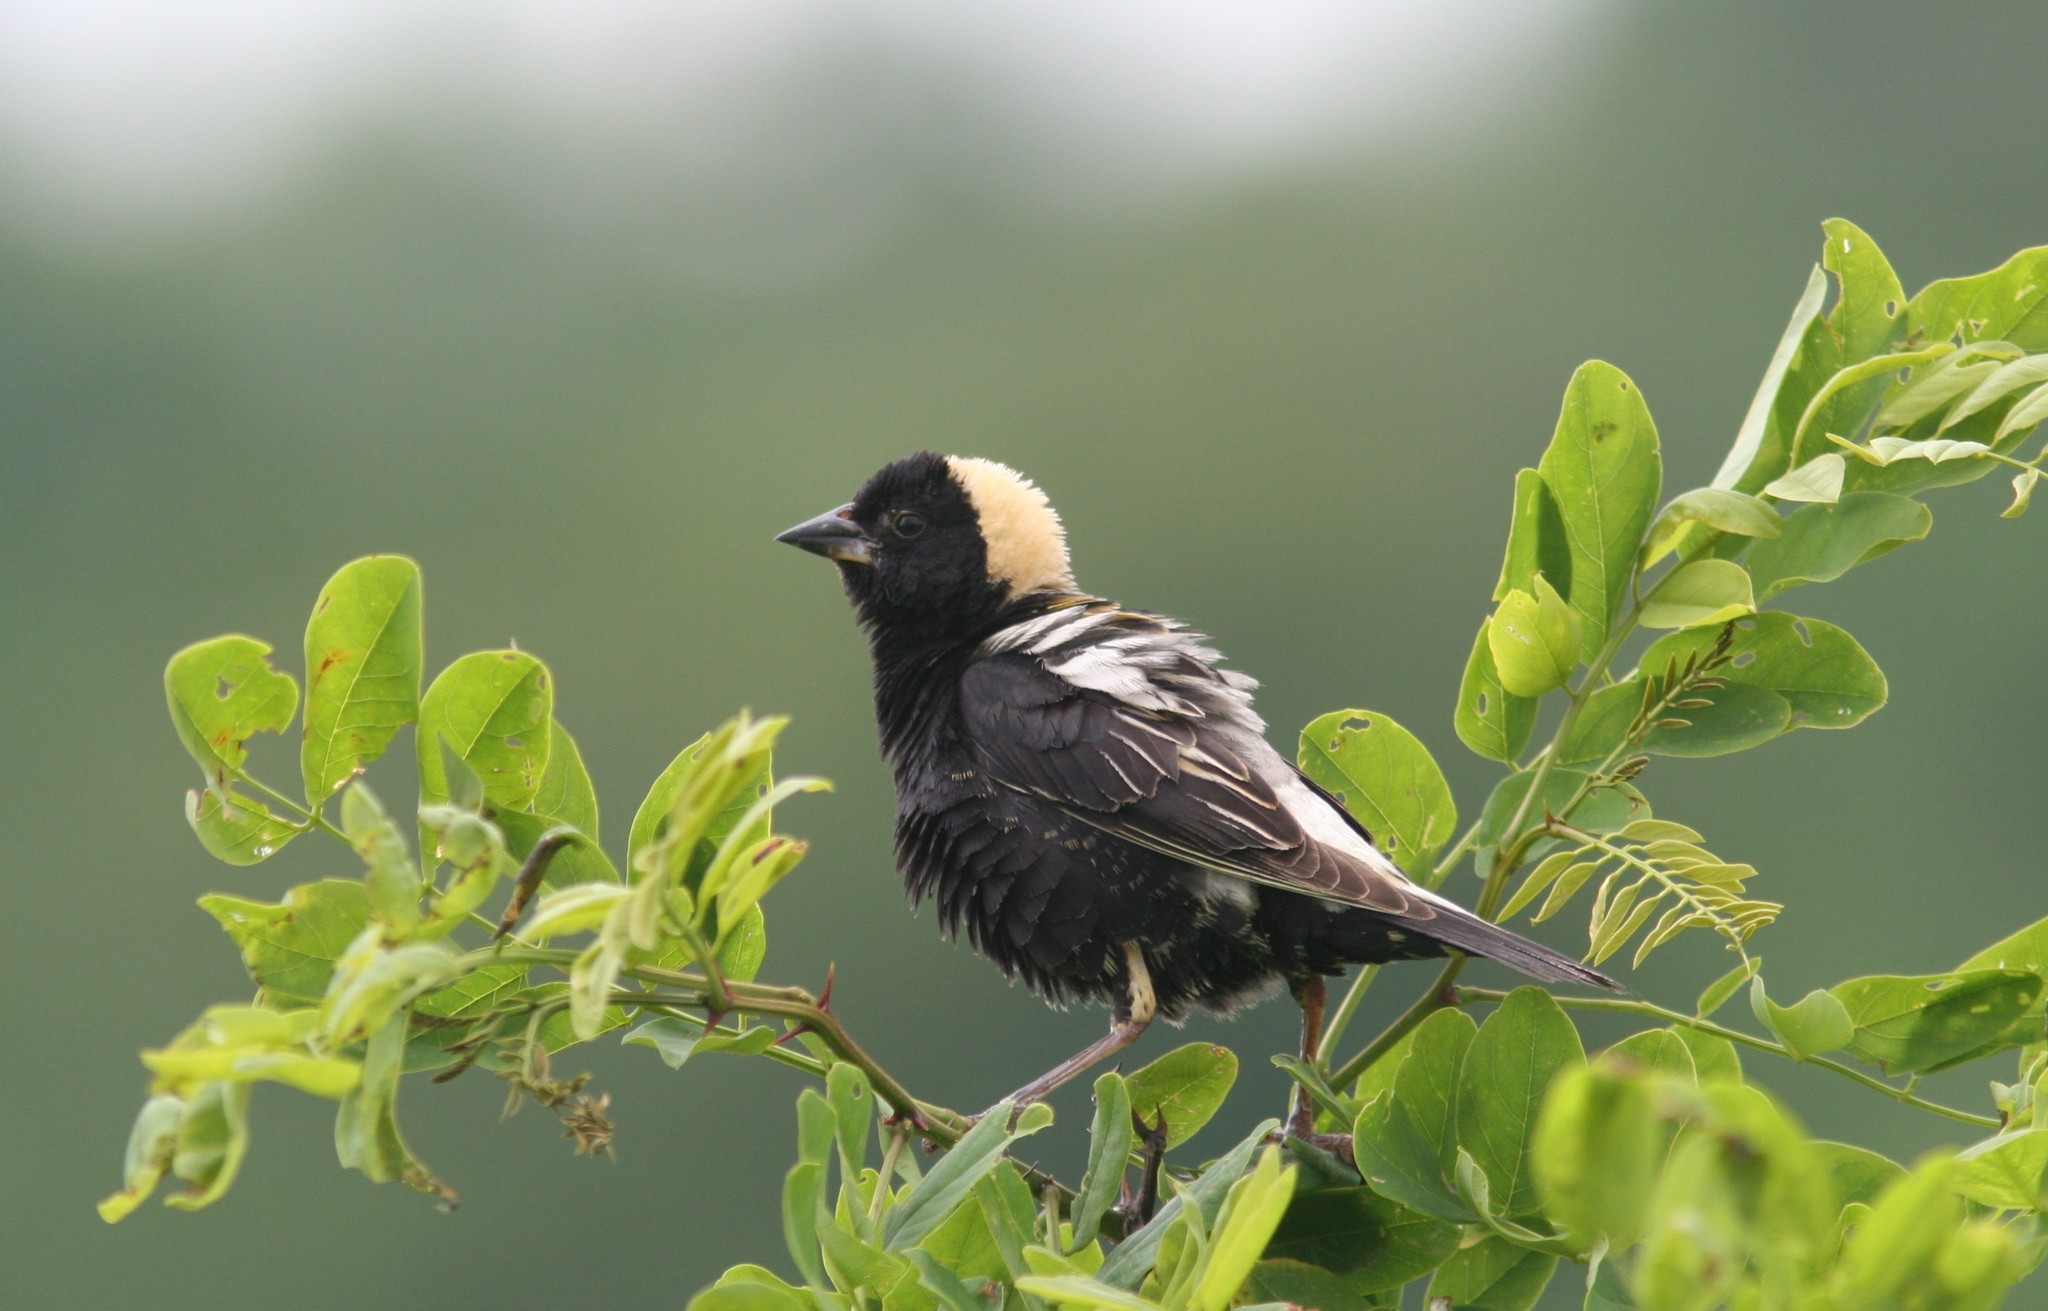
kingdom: Animalia
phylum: Chordata
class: Aves
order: Passeriformes
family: Icteridae
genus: Dolichonyx
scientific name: Dolichonyx oryzivorus
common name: Bobolink
